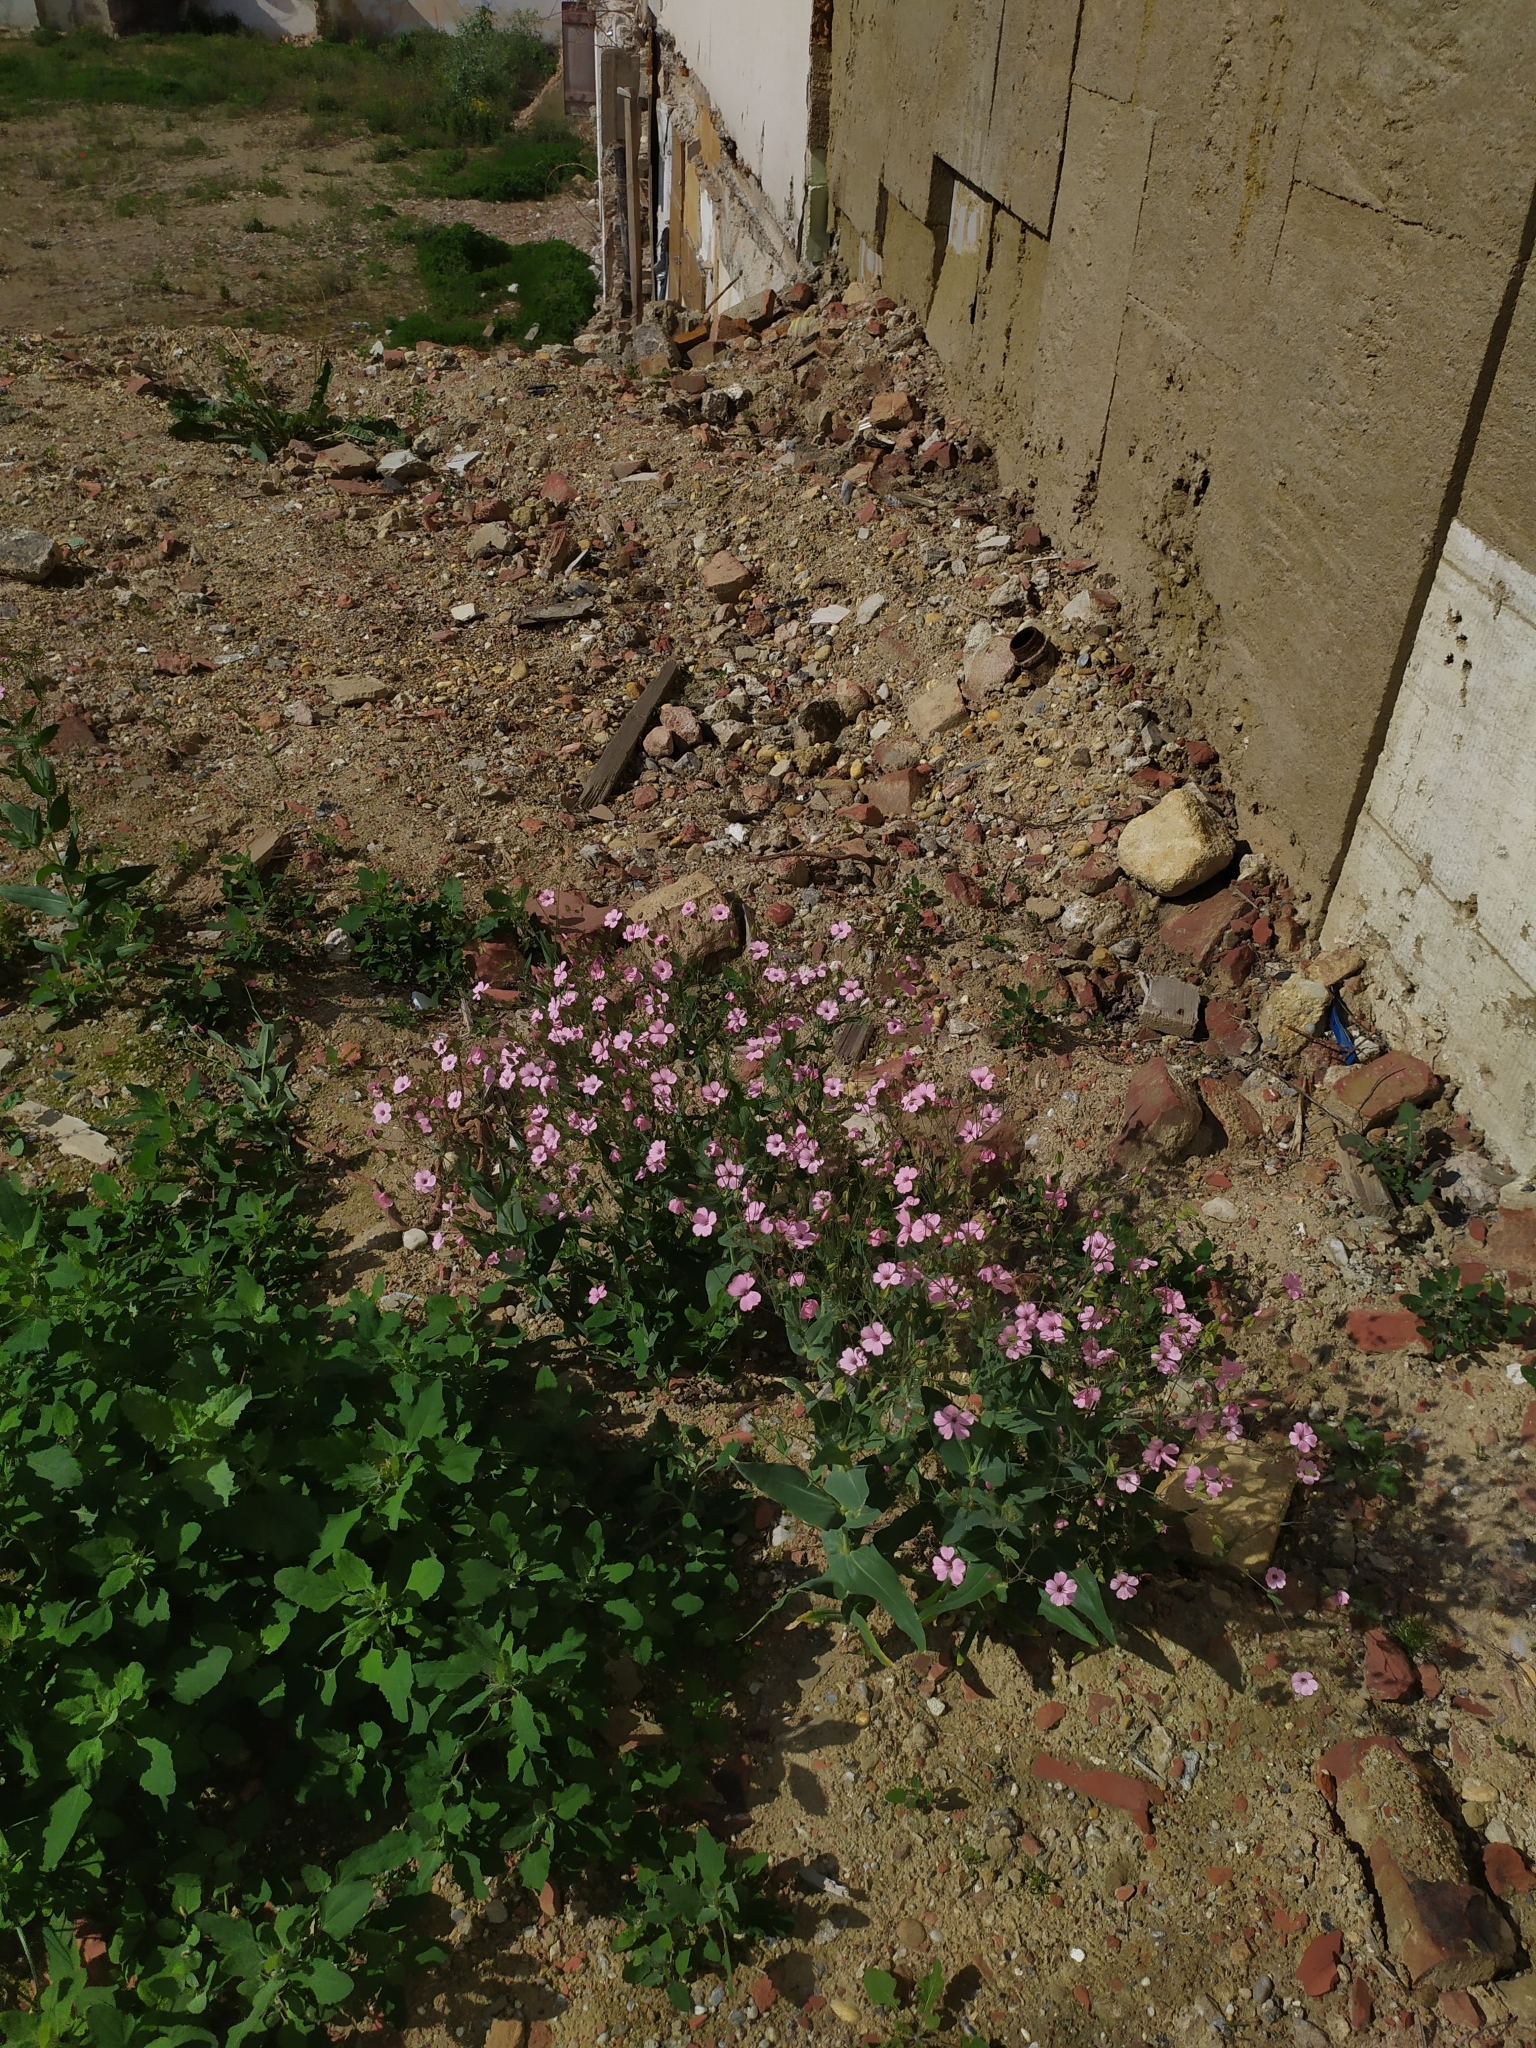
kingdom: Plantae
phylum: Tracheophyta
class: Magnoliopsida
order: Caryophyllales
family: Caryophyllaceae
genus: Gypsophila
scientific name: Gypsophila vaccaria
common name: Cow soapwort
